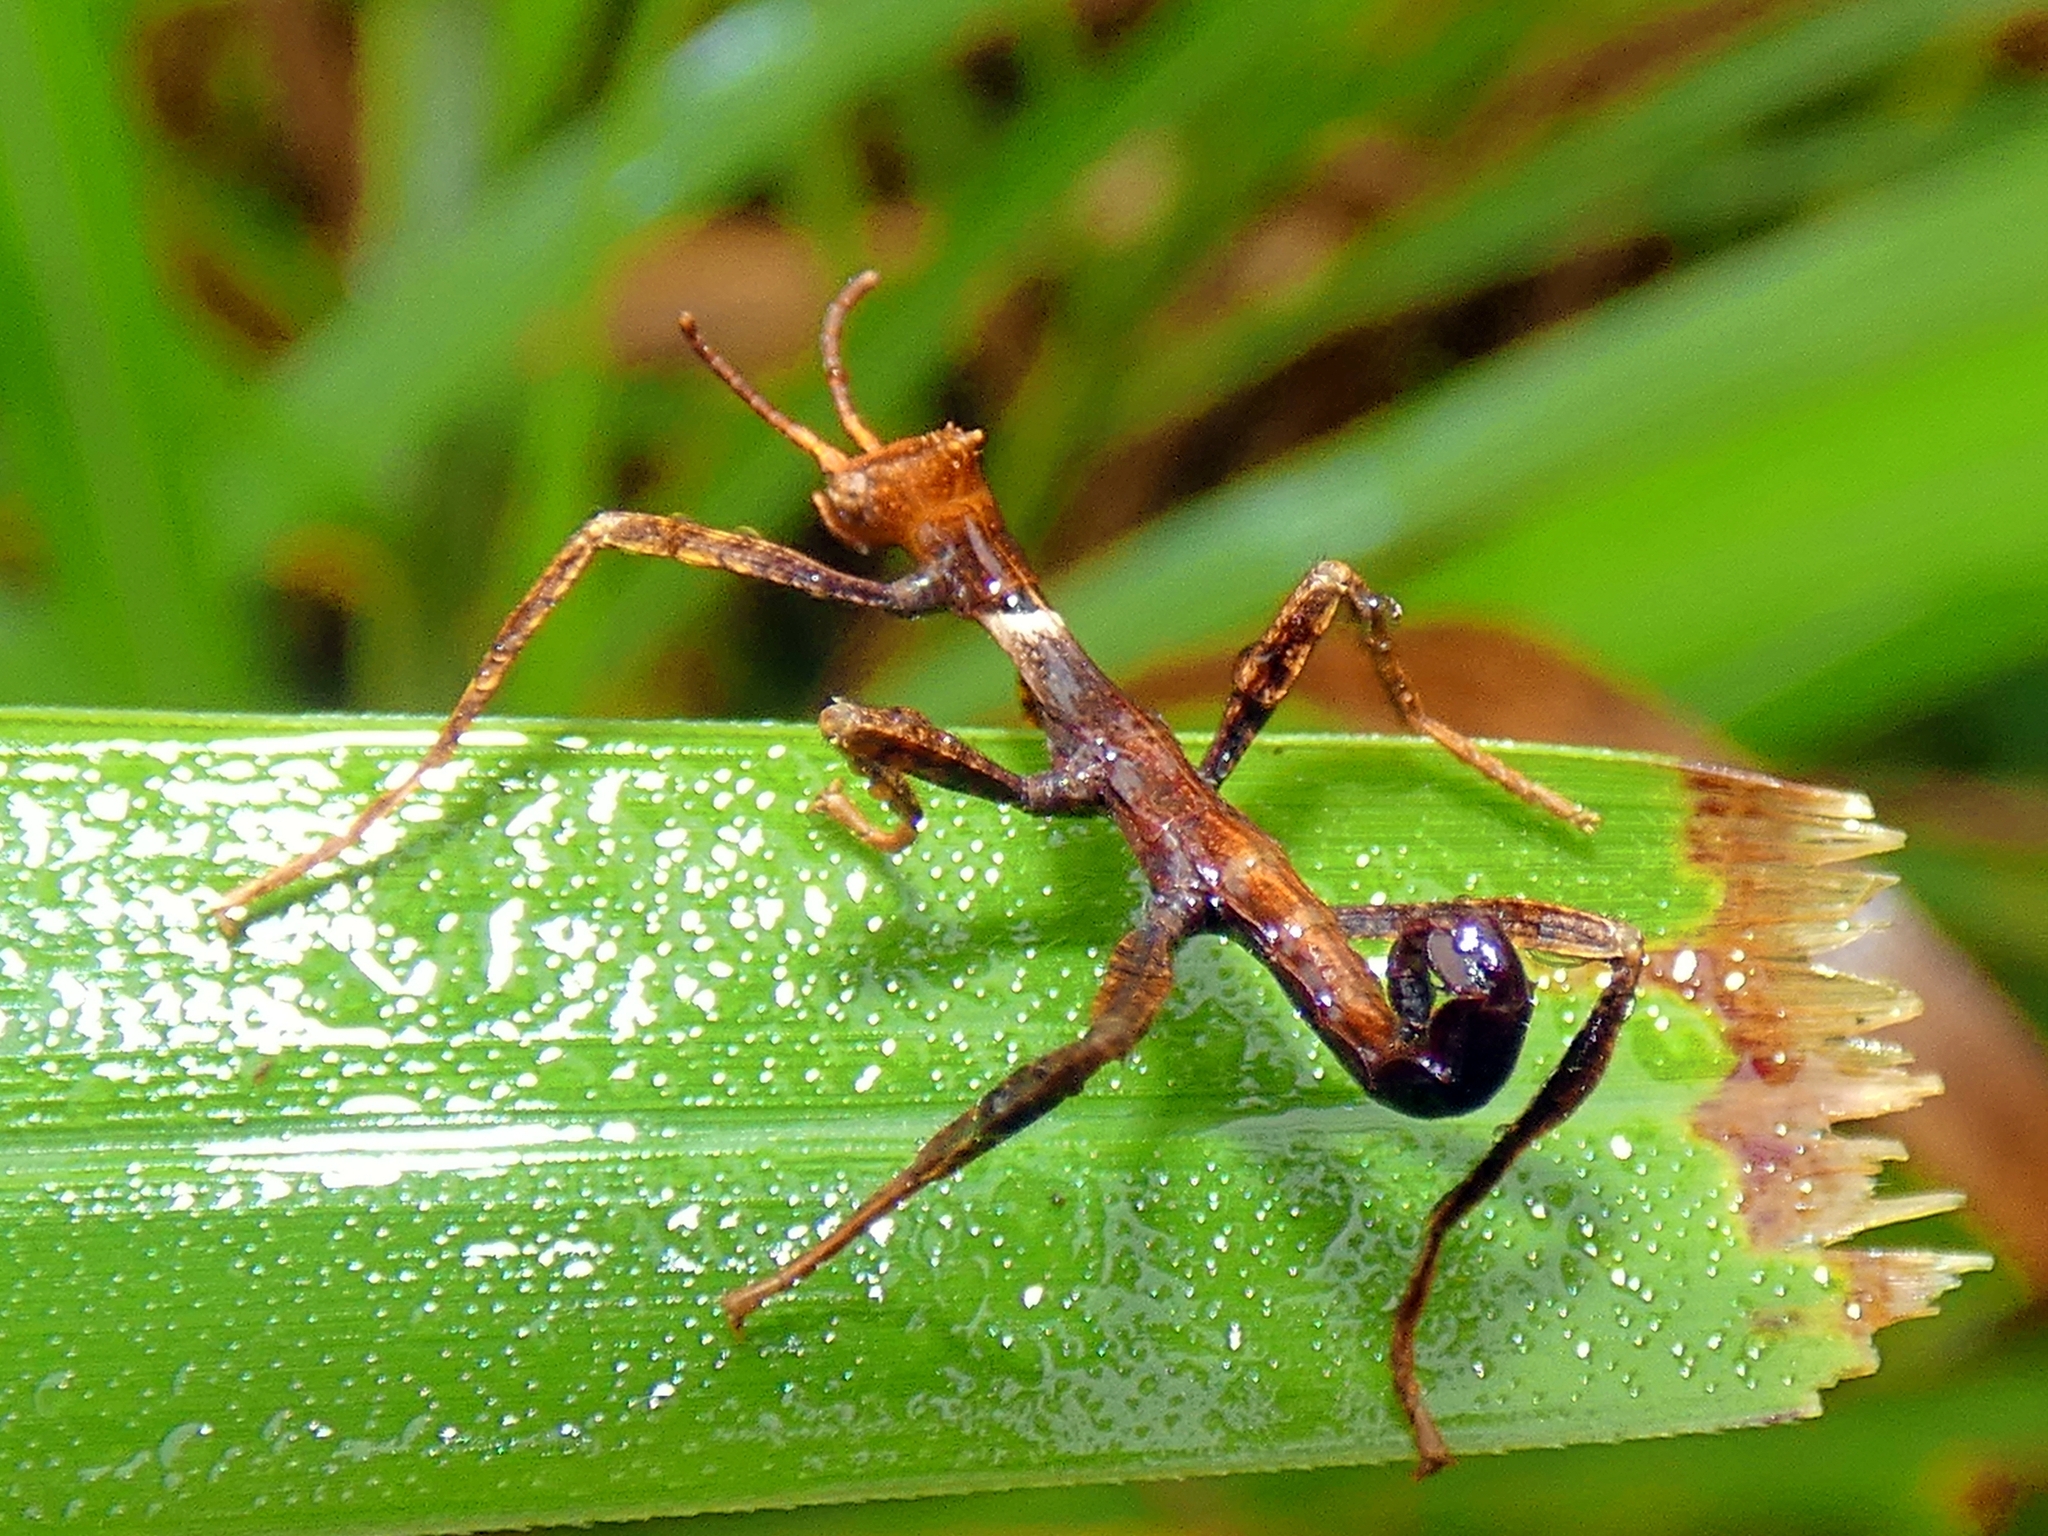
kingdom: Animalia
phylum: Arthropoda
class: Insecta
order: Phasmida
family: Phasmatidae
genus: Extatosoma
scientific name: Extatosoma tiaratum
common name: Macleay's spectre
